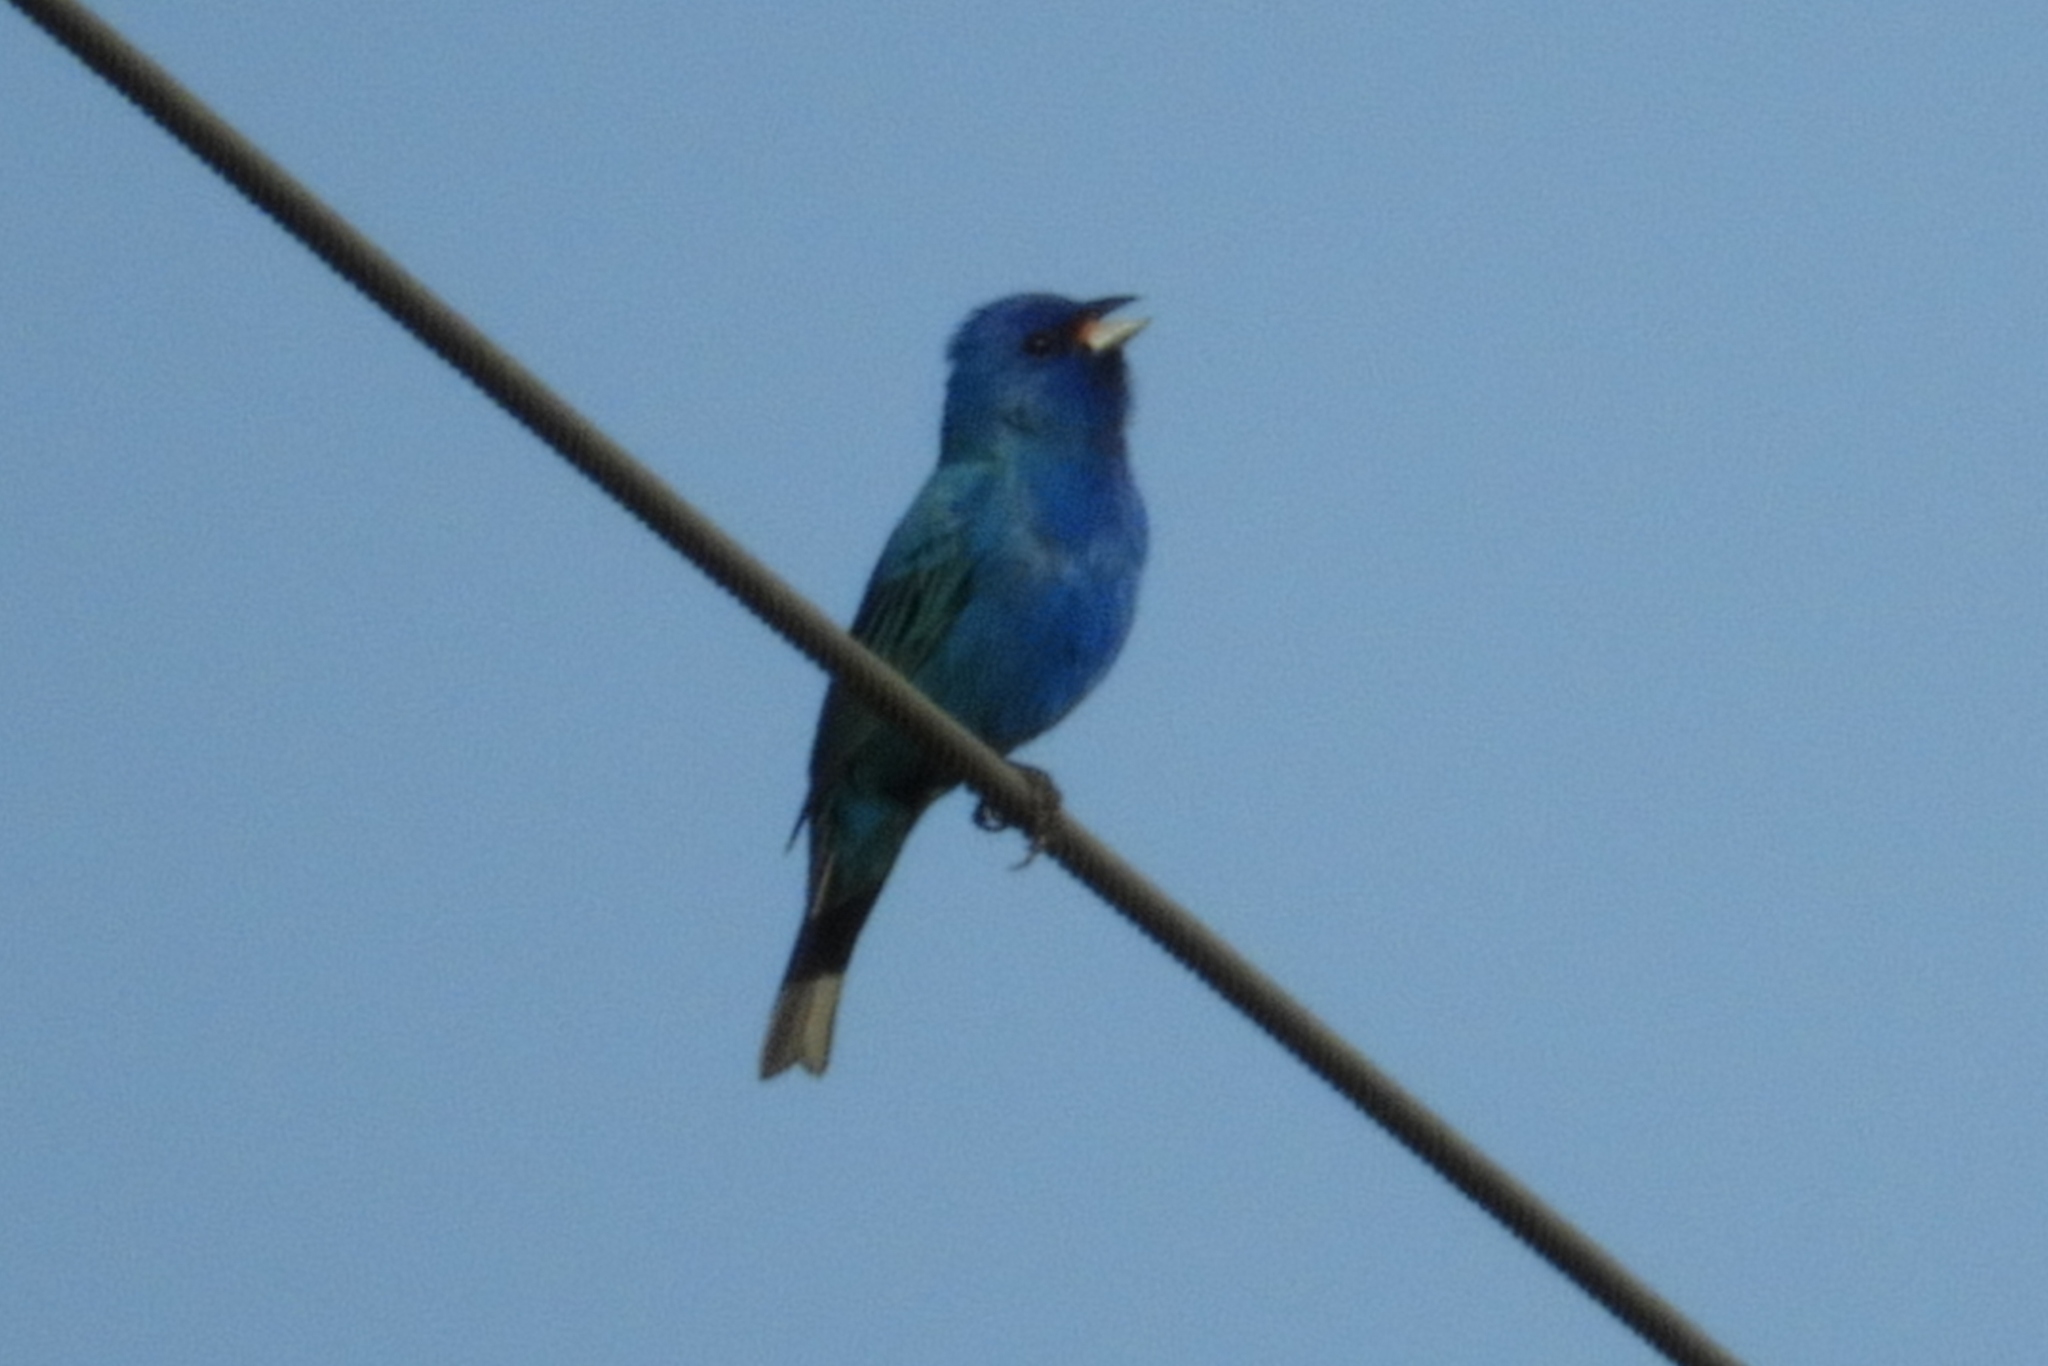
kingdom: Animalia
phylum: Chordata
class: Aves
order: Passeriformes
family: Cardinalidae
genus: Passerina
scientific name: Passerina cyanea
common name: Indigo bunting
